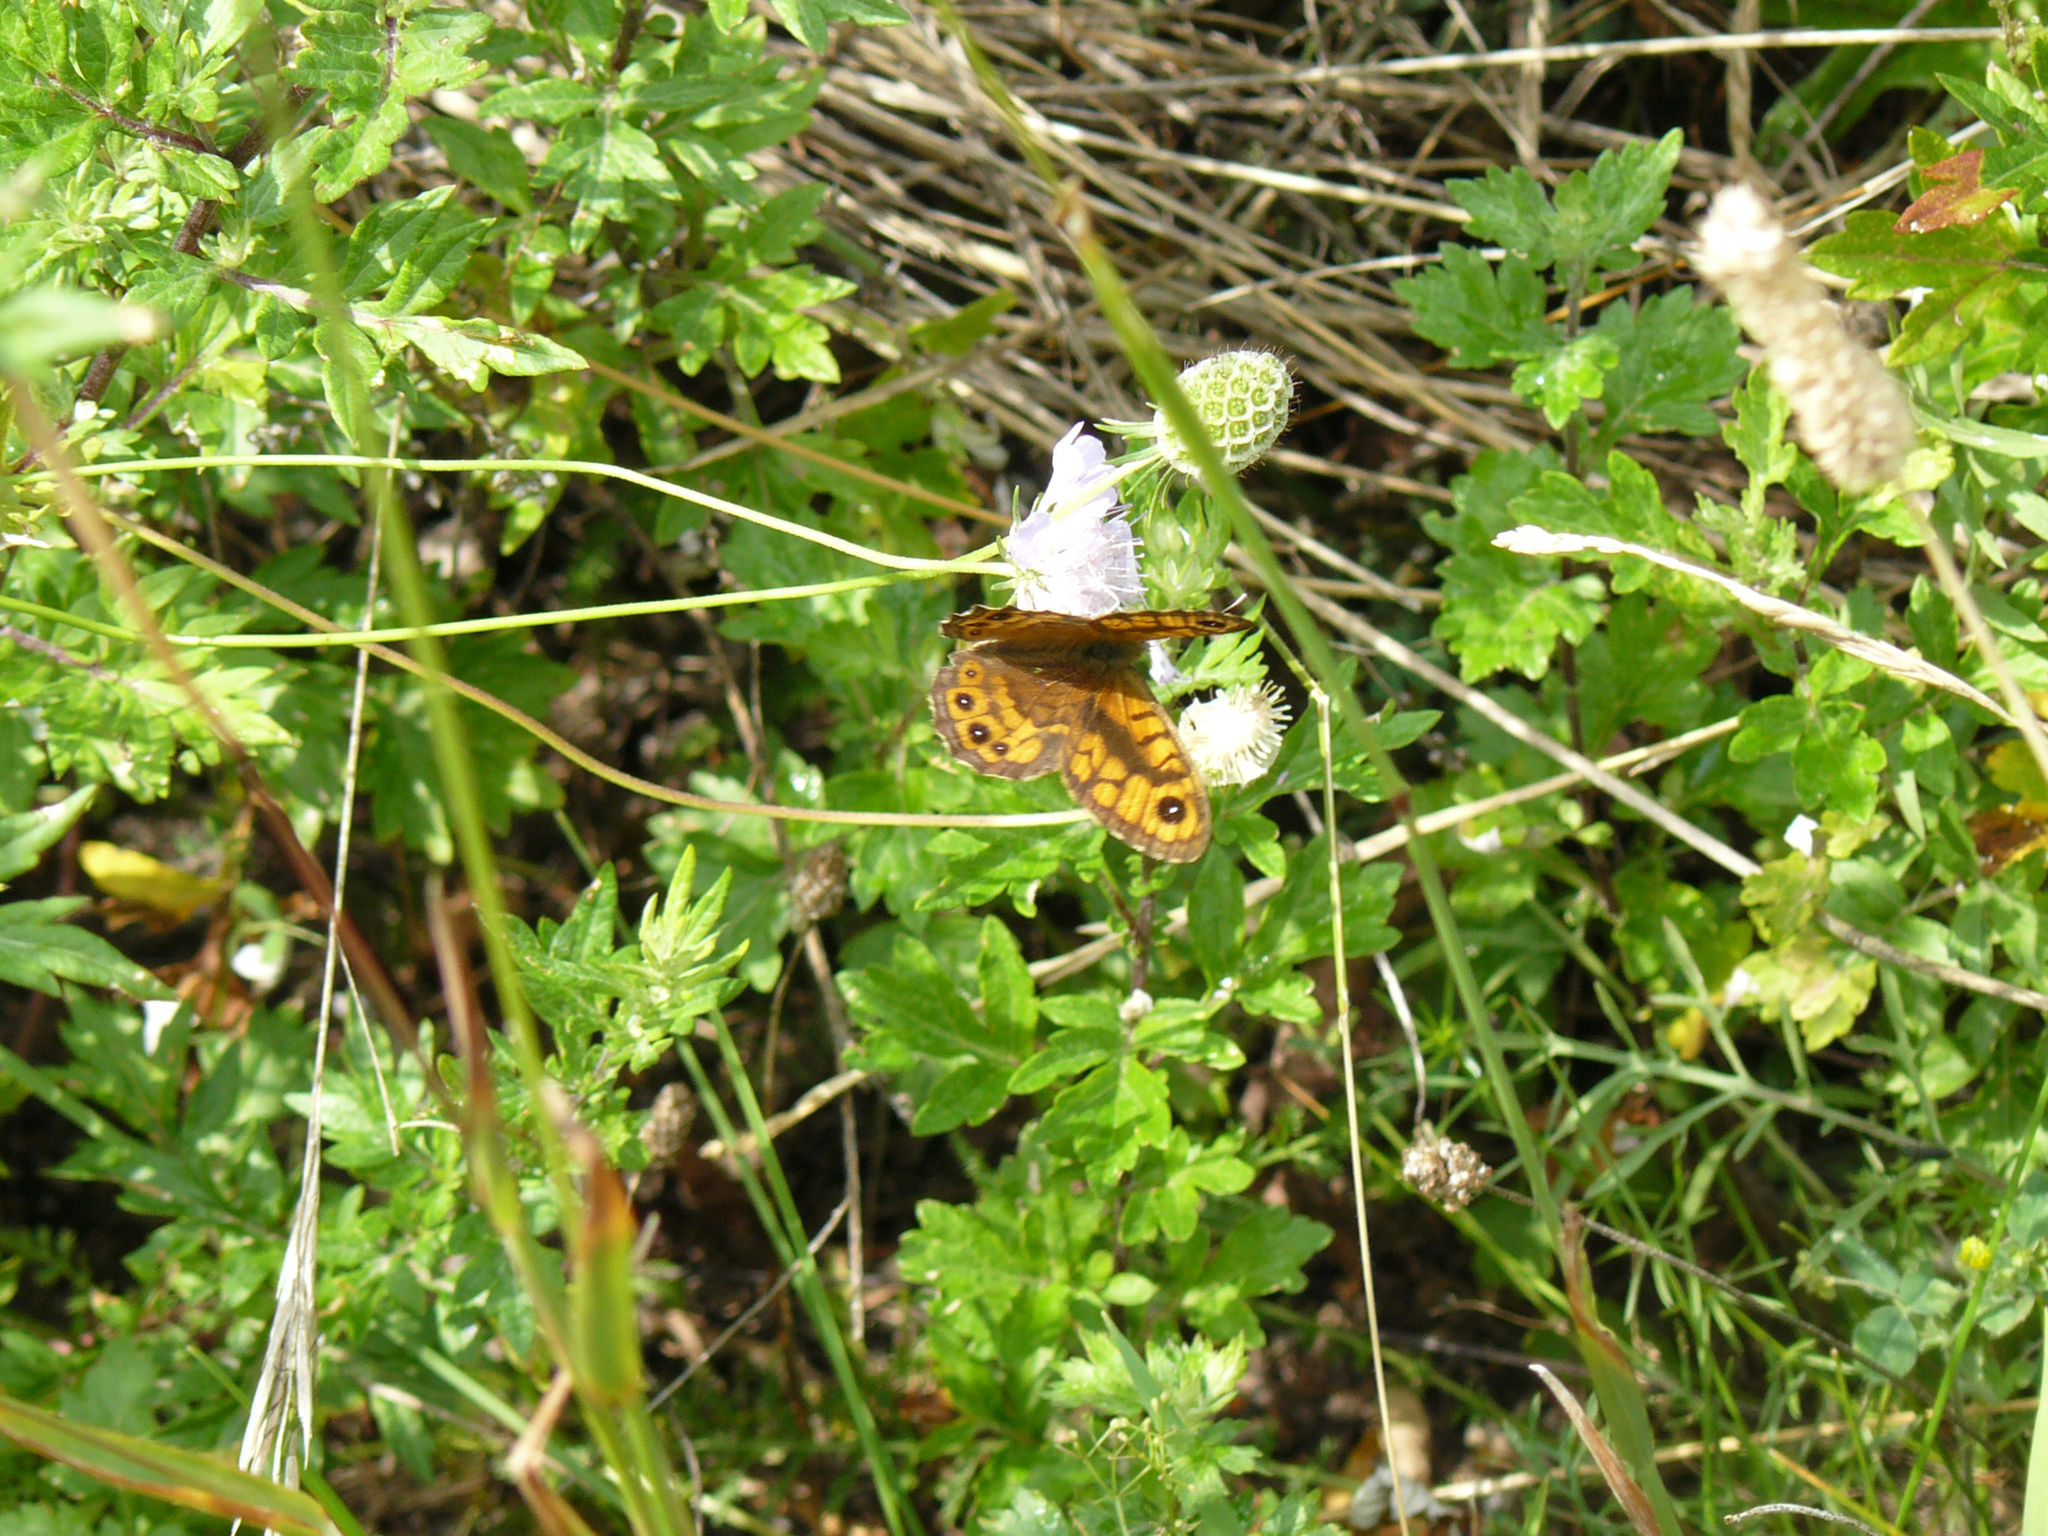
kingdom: Animalia
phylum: Arthropoda
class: Insecta
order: Lepidoptera
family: Nymphalidae
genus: Pararge
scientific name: Pararge Lasiommata megera
